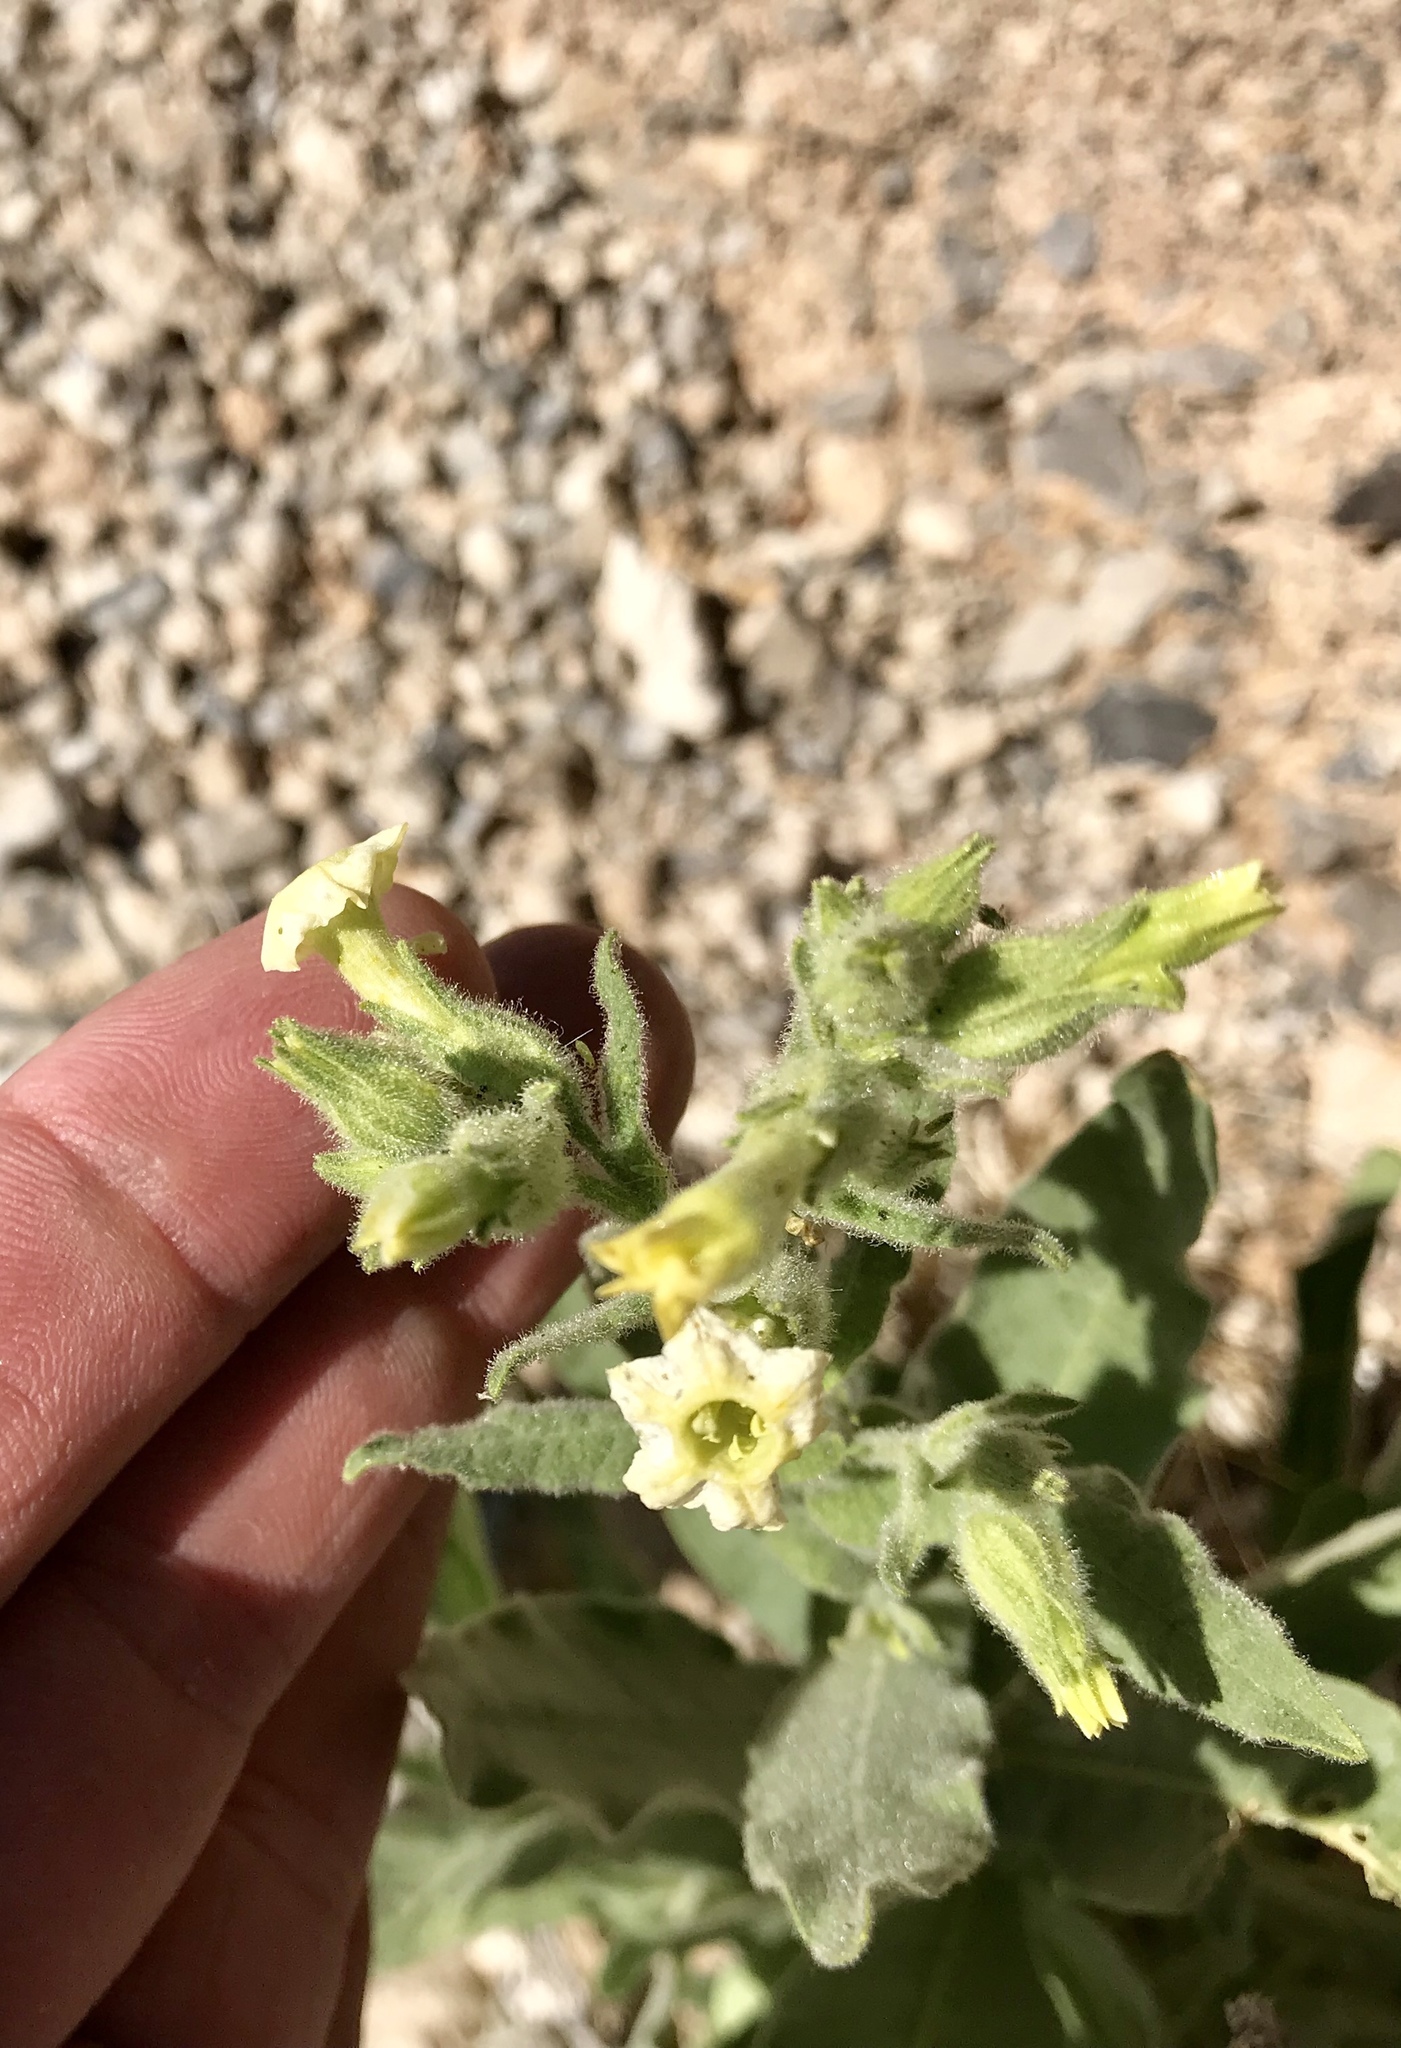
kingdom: Plantae
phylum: Tracheophyta
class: Magnoliopsida
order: Solanales
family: Solanaceae
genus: Nicotiana
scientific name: Nicotiana obtusifolia
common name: Desert tobacco
